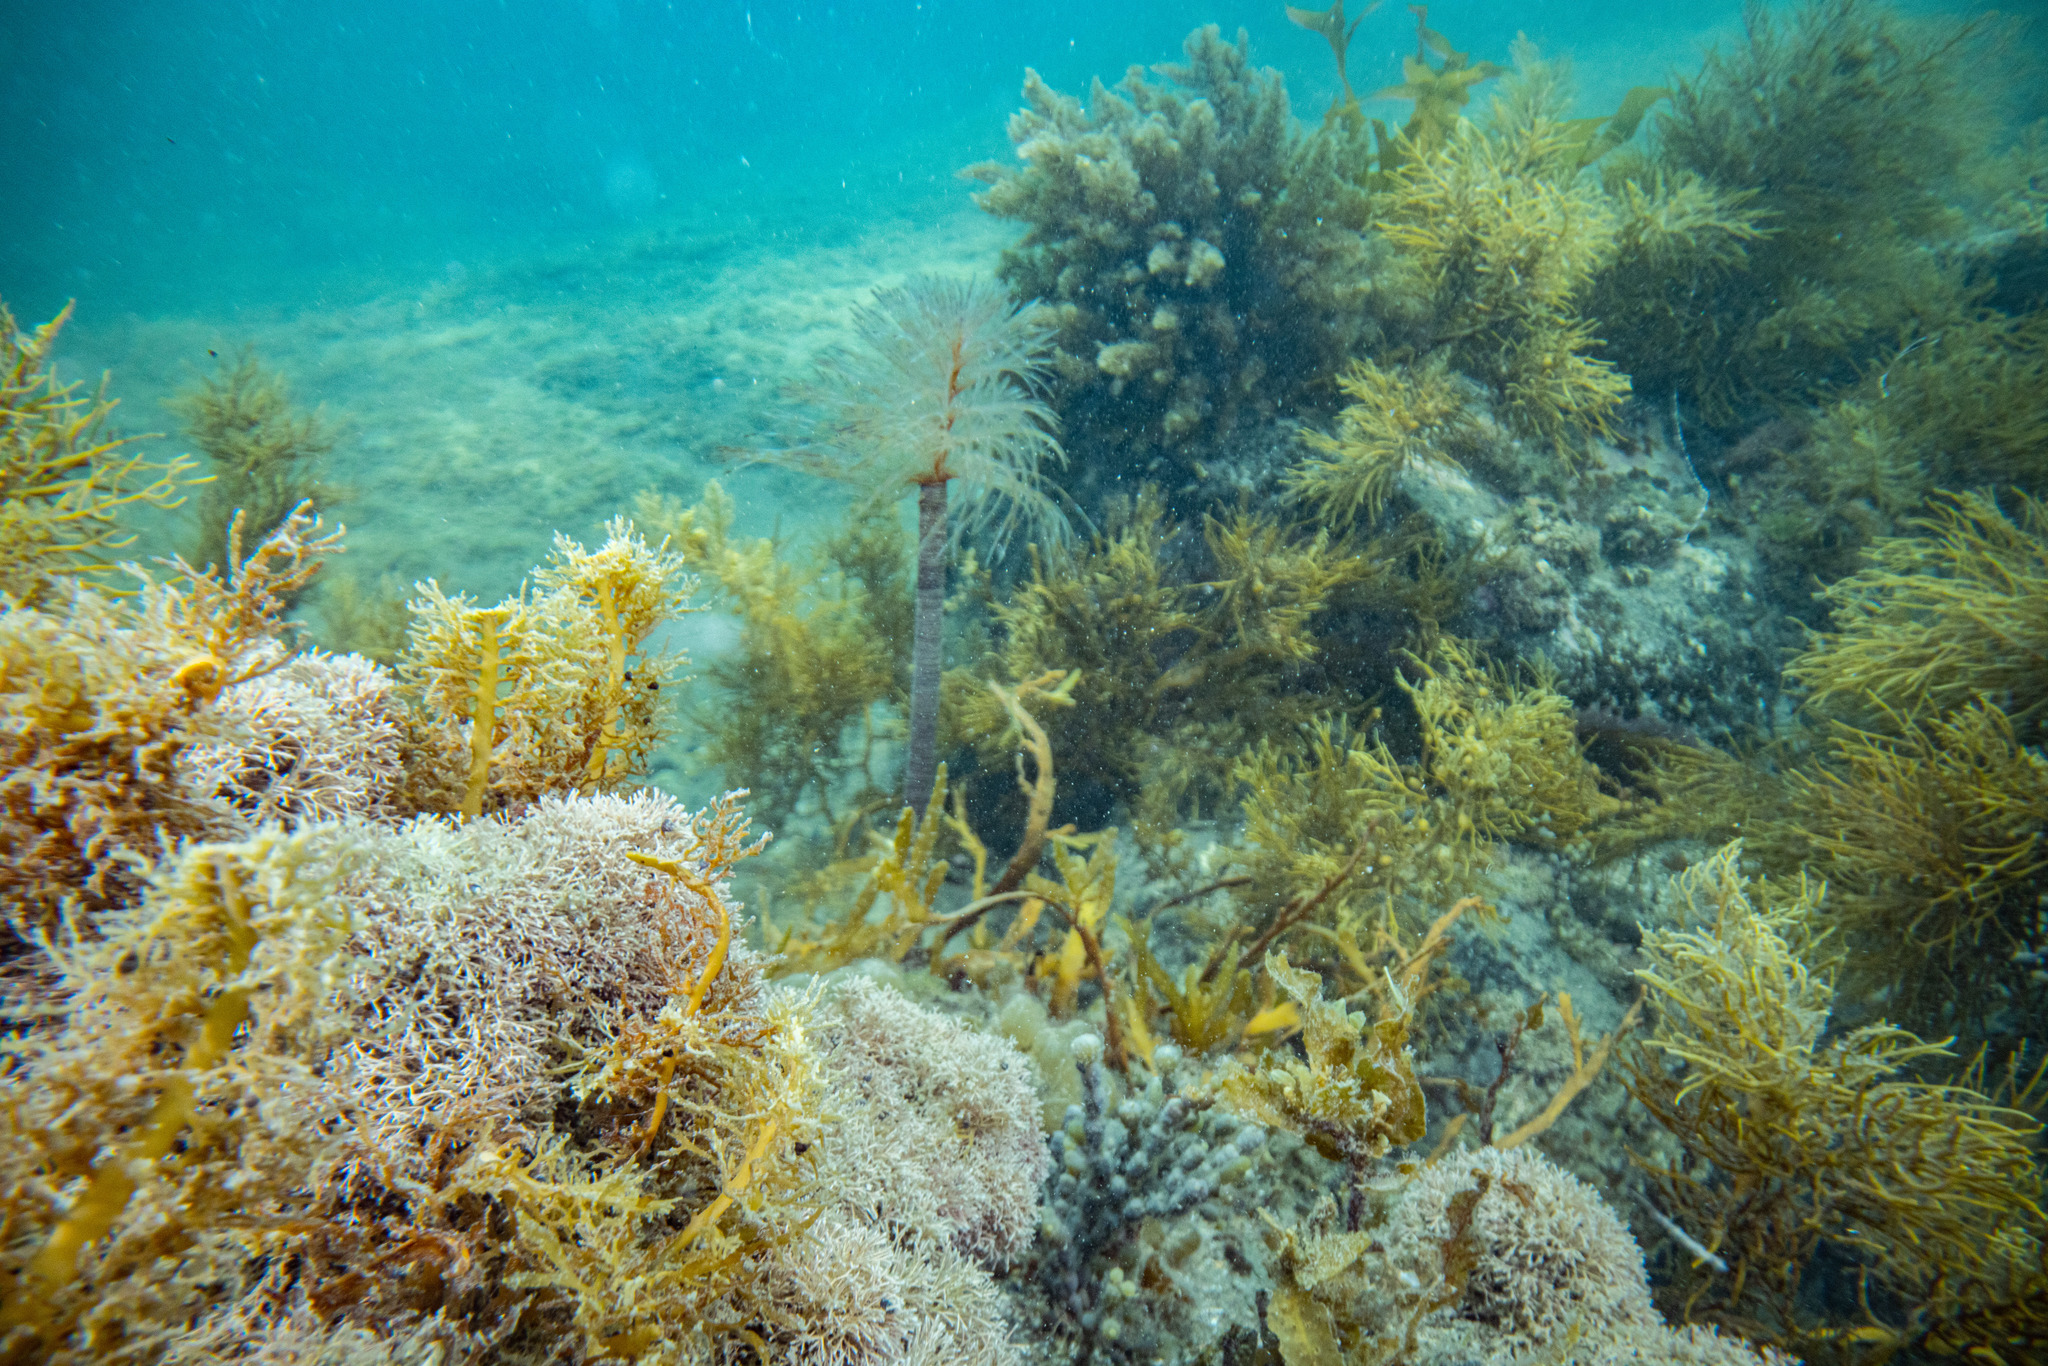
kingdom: Animalia
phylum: Annelida
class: Polychaeta
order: Sabellida
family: Sabellidae
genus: Sabella
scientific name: Sabella spallanzanii
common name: Feather duster worm
